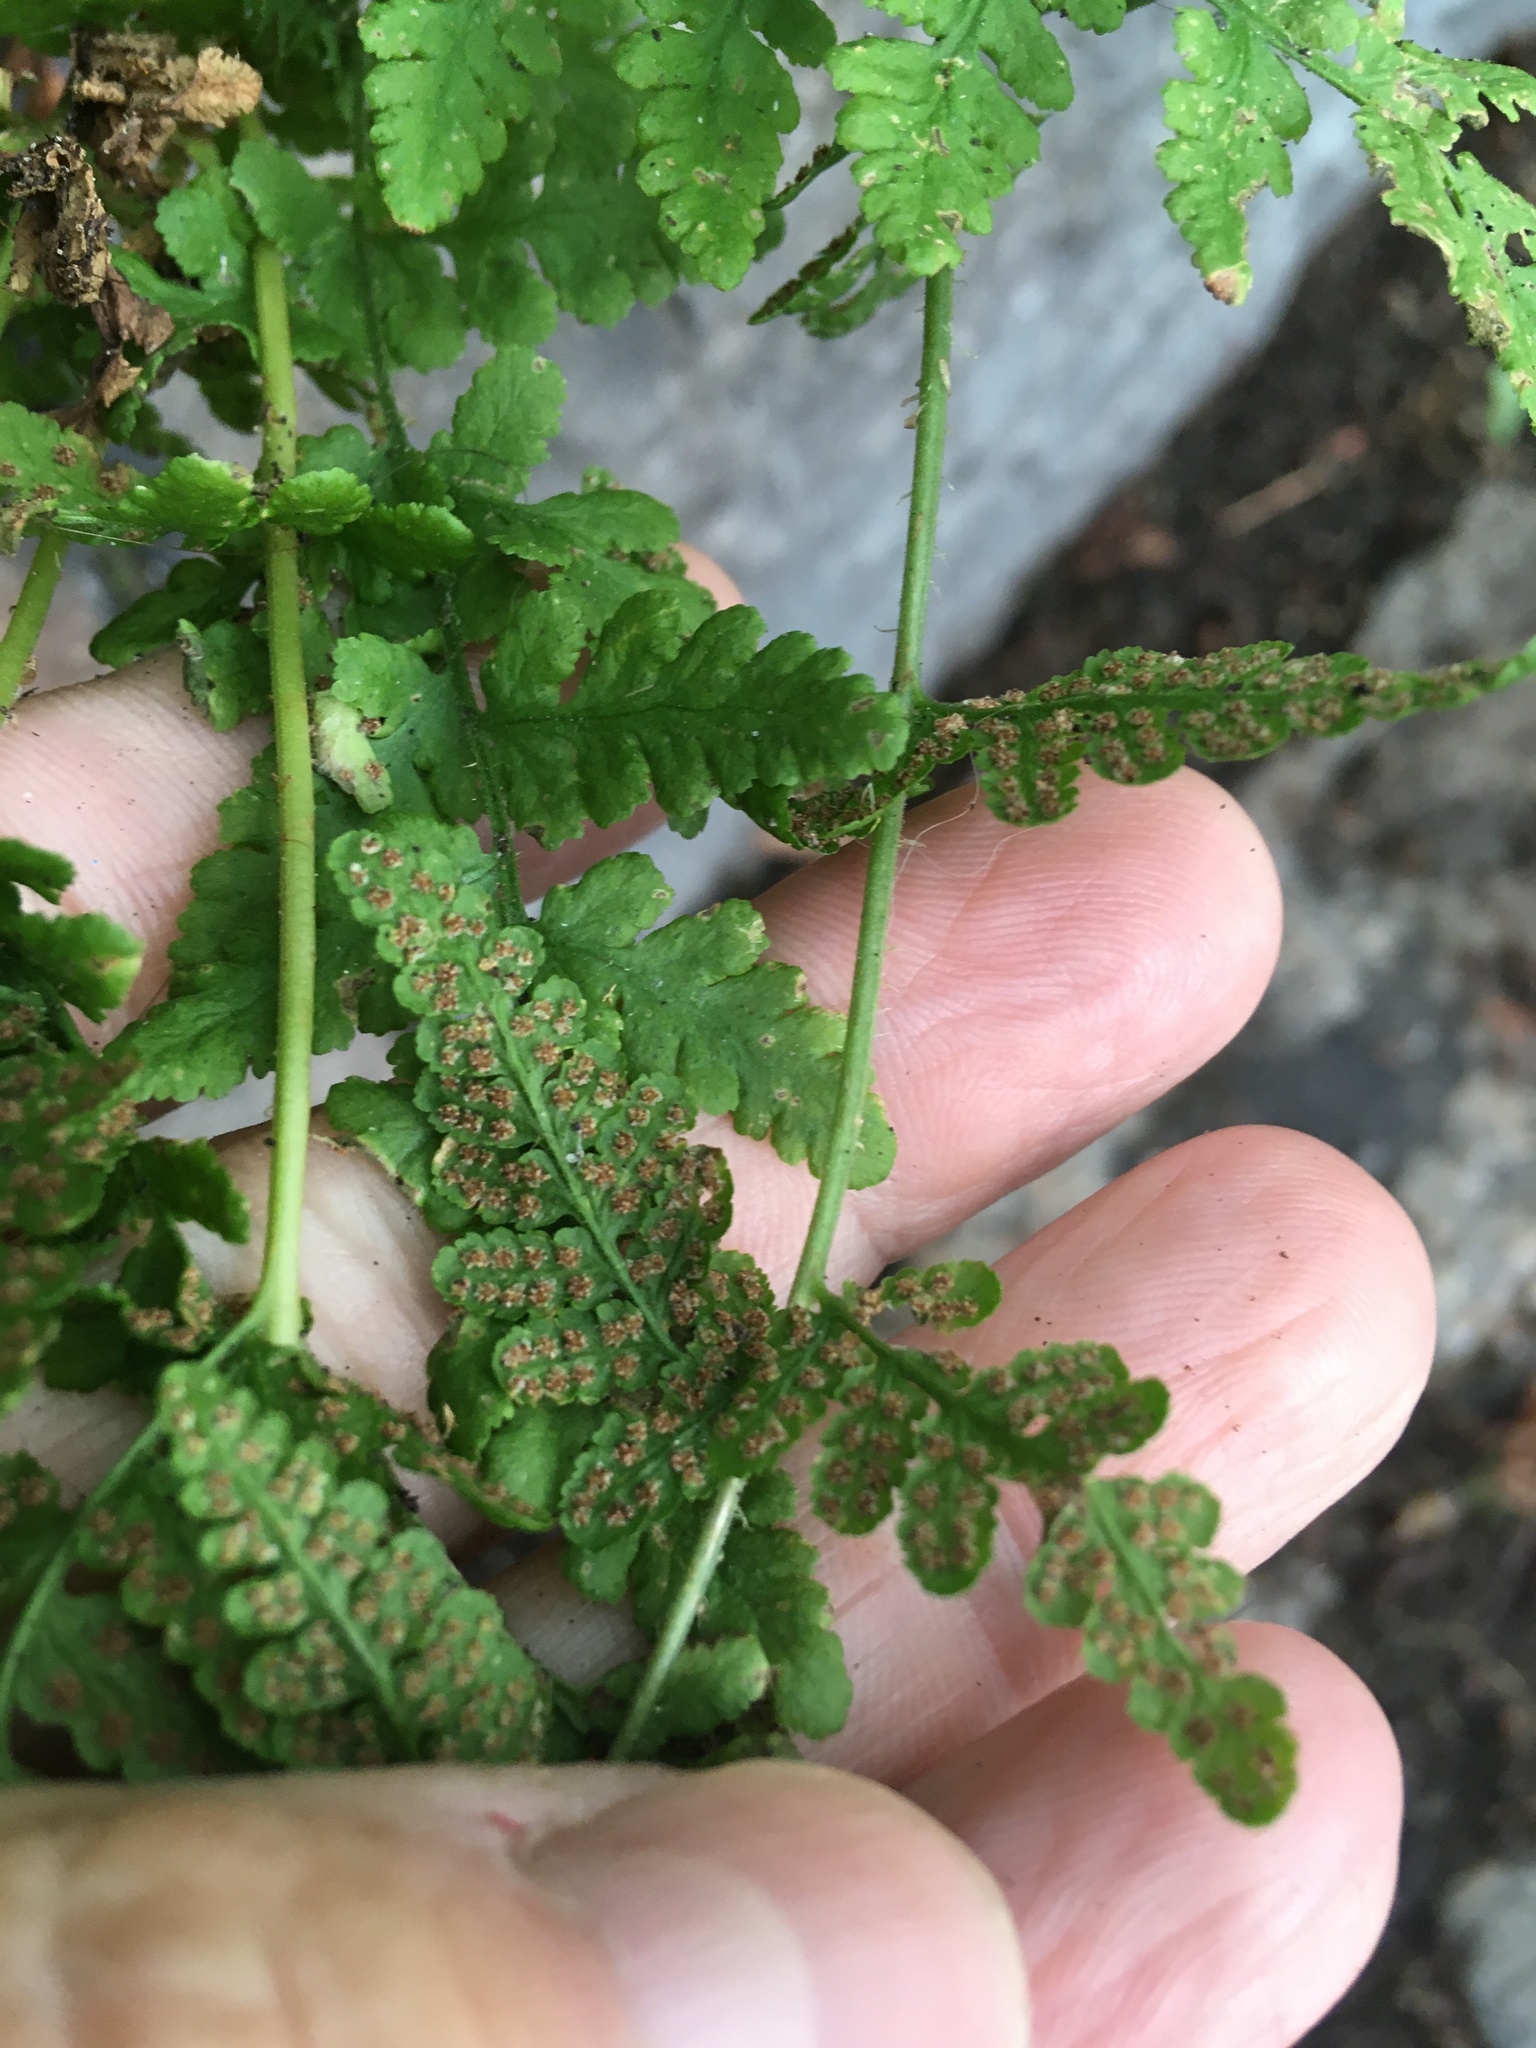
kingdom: Plantae
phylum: Tracheophyta
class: Polypodiopsida
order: Polypodiales
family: Woodsiaceae
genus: Physematium
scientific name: Physematium obtusum
